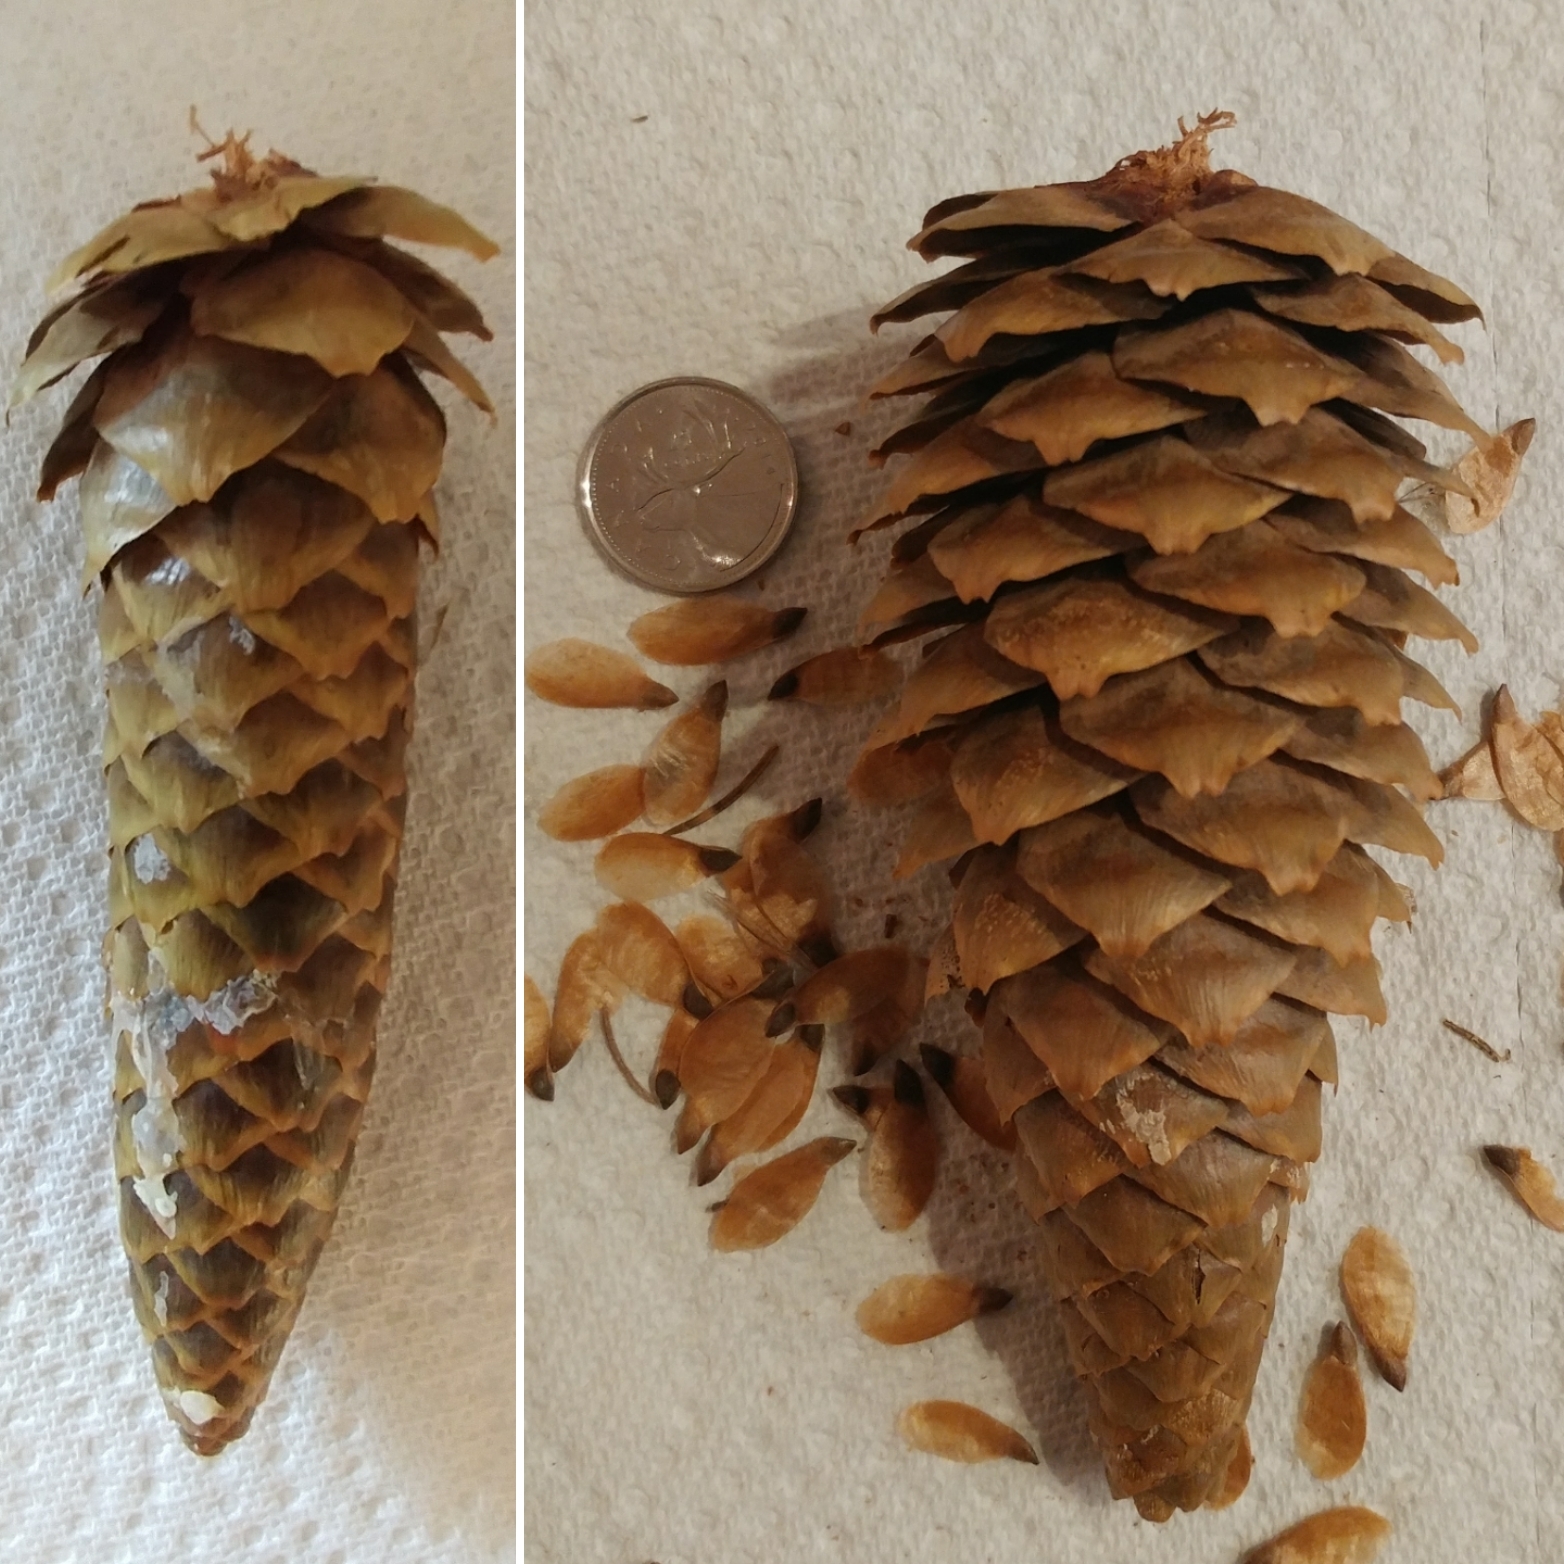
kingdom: Plantae
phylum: Tracheophyta
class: Pinopsida
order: Pinales
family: Pinaceae
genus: Picea
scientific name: Picea abies
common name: Norway spruce
